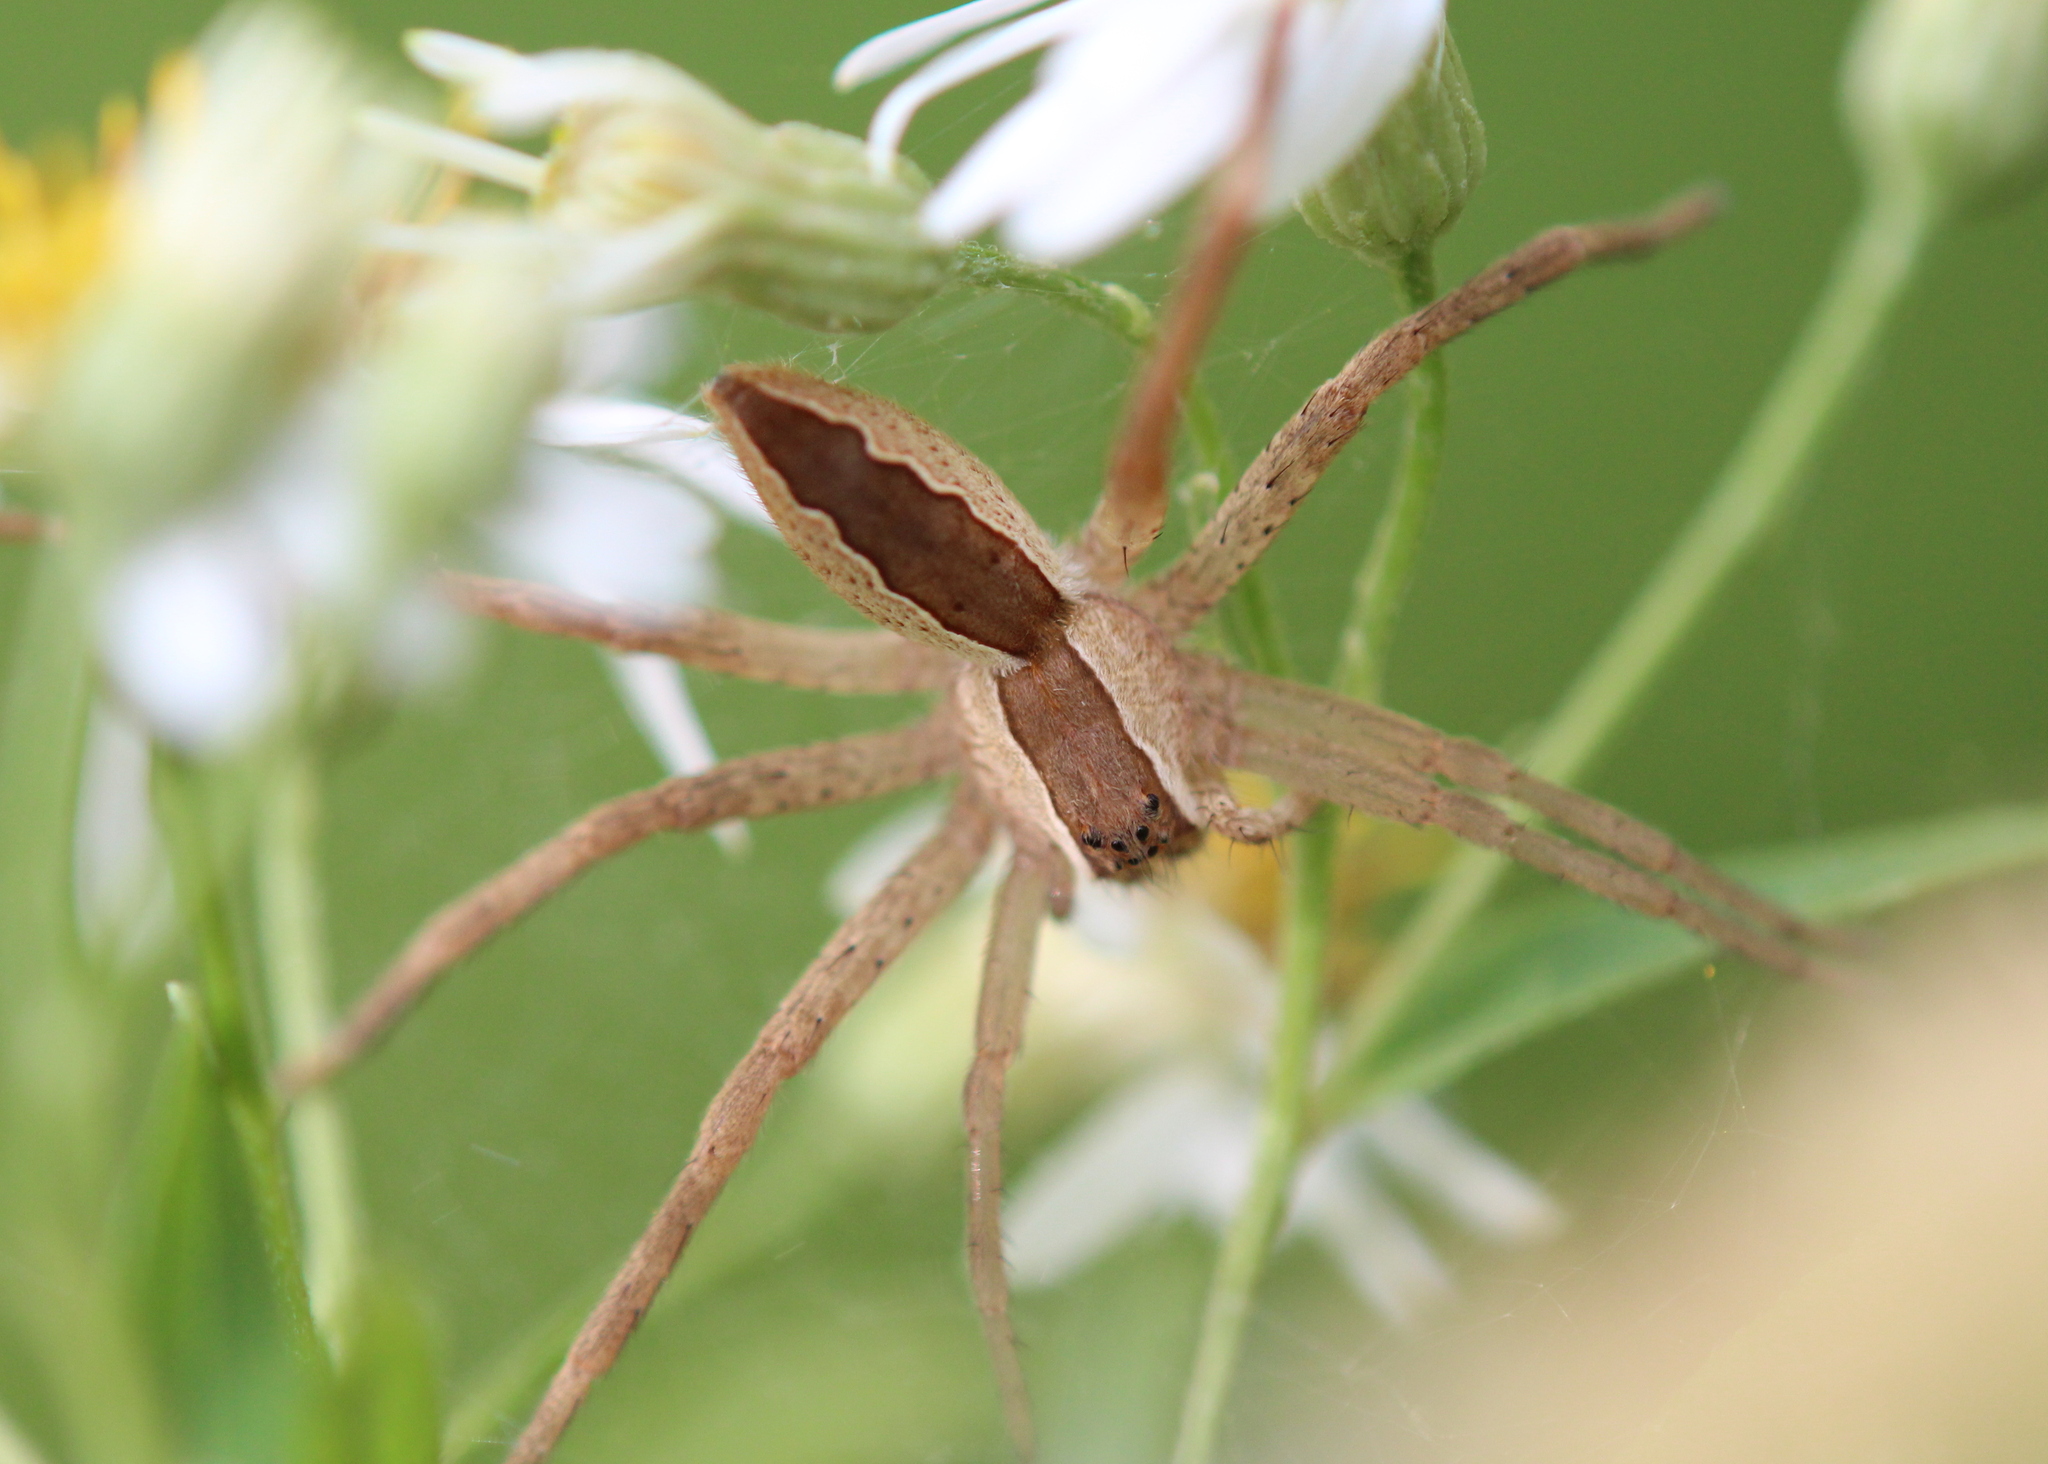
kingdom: Animalia
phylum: Arthropoda
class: Arachnida
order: Araneae
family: Pisauridae
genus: Pisaurina
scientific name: Pisaurina mira
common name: American nursery web spider
